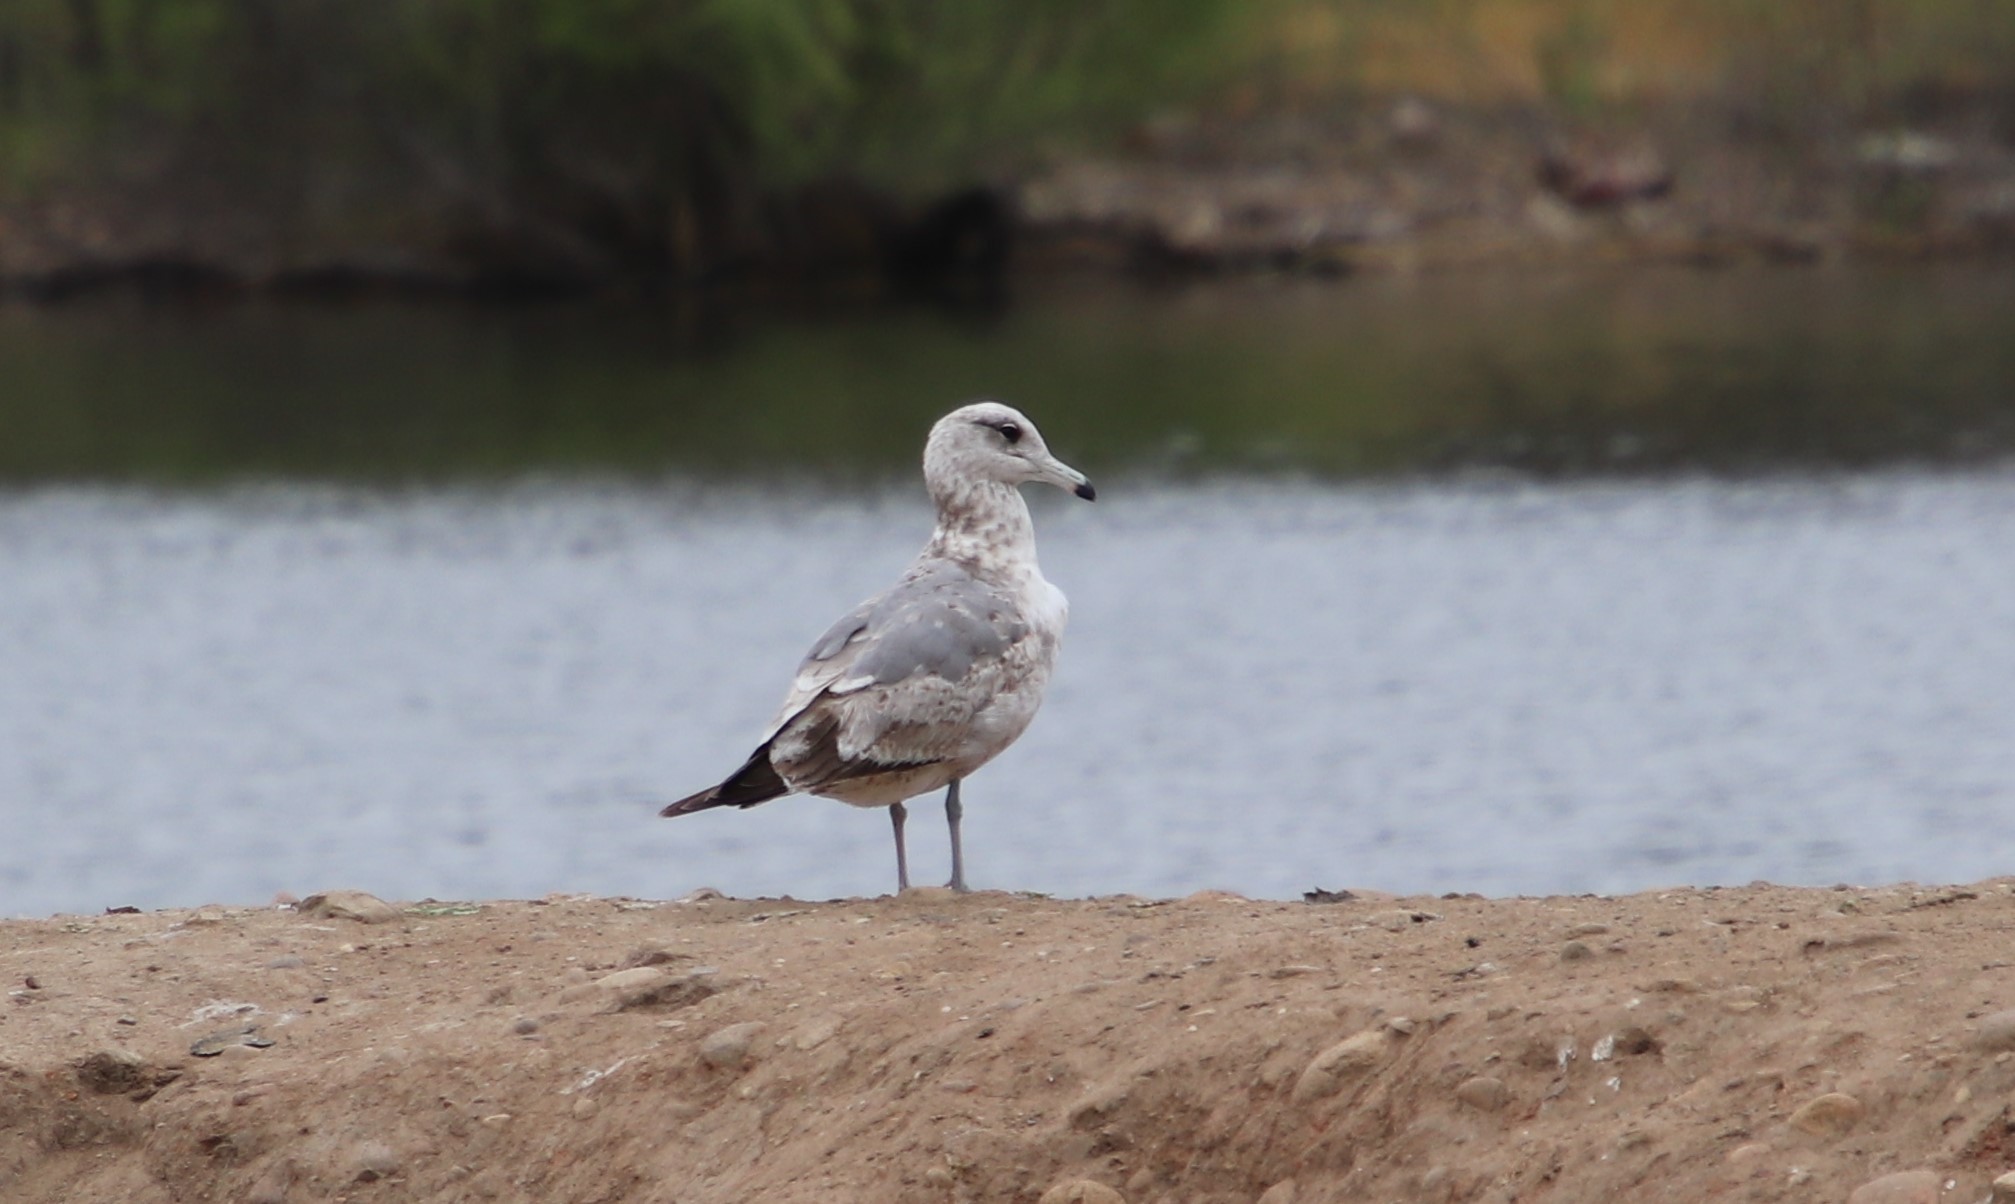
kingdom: Animalia
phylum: Chordata
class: Aves
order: Charadriiformes
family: Laridae
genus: Larus
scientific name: Larus californicus
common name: California gull
